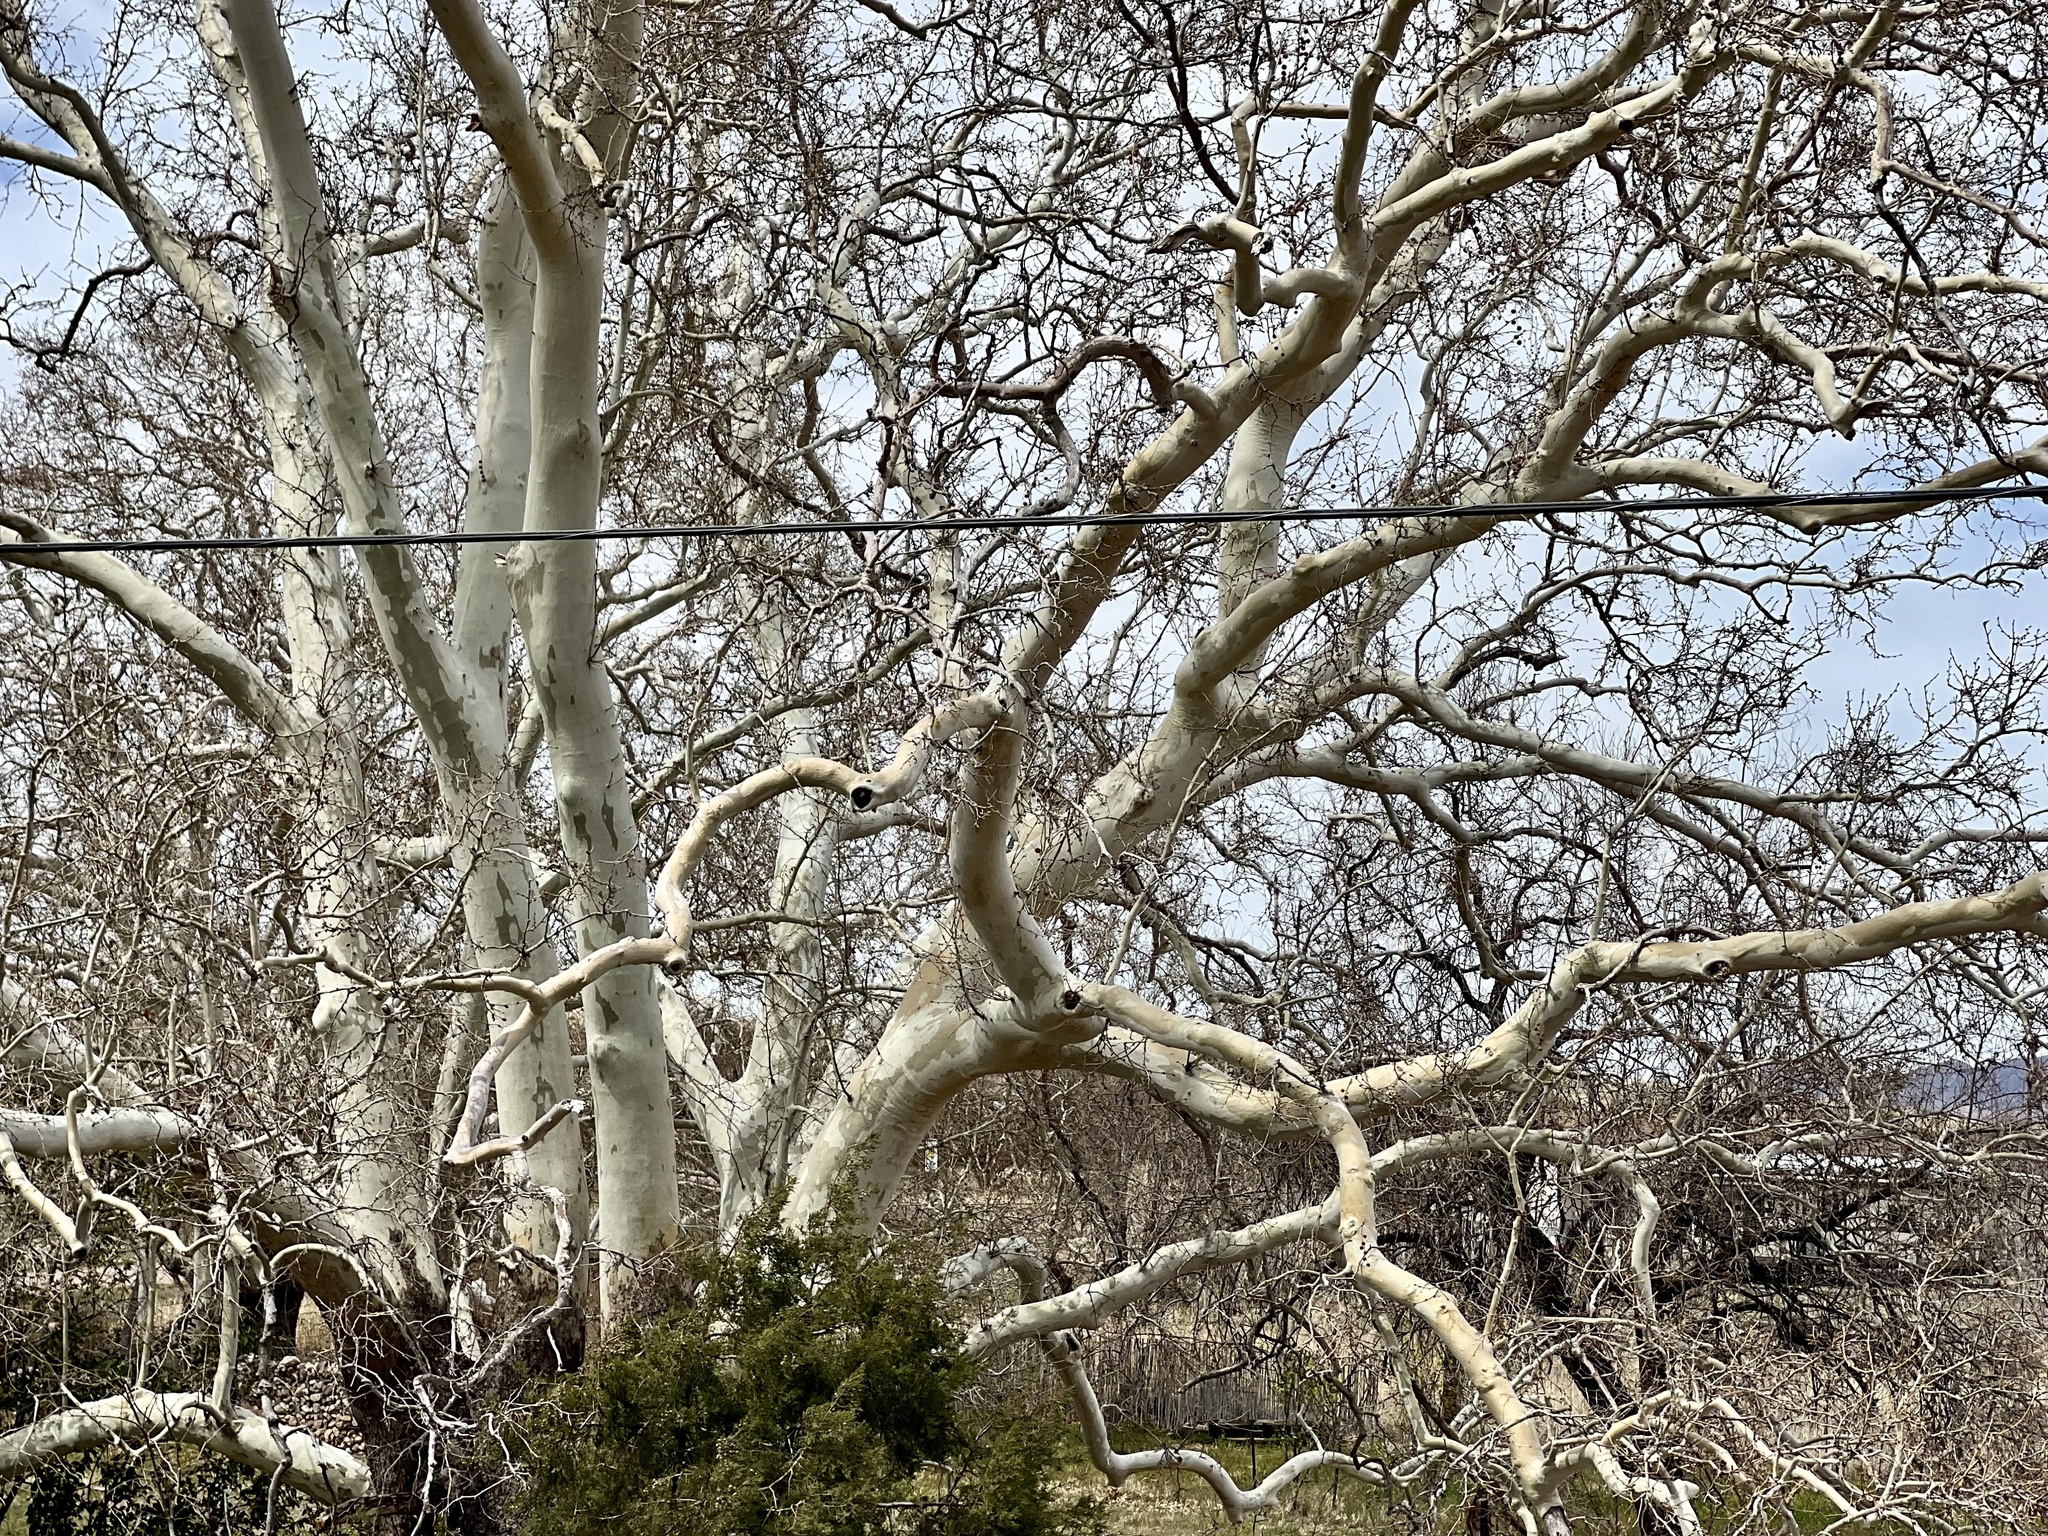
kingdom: Plantae
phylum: Tracheophyta
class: Magnoliopsida
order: Proteales
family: Platanaceae
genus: Platanus
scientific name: Platanus wrightii
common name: Arizona sycamore
